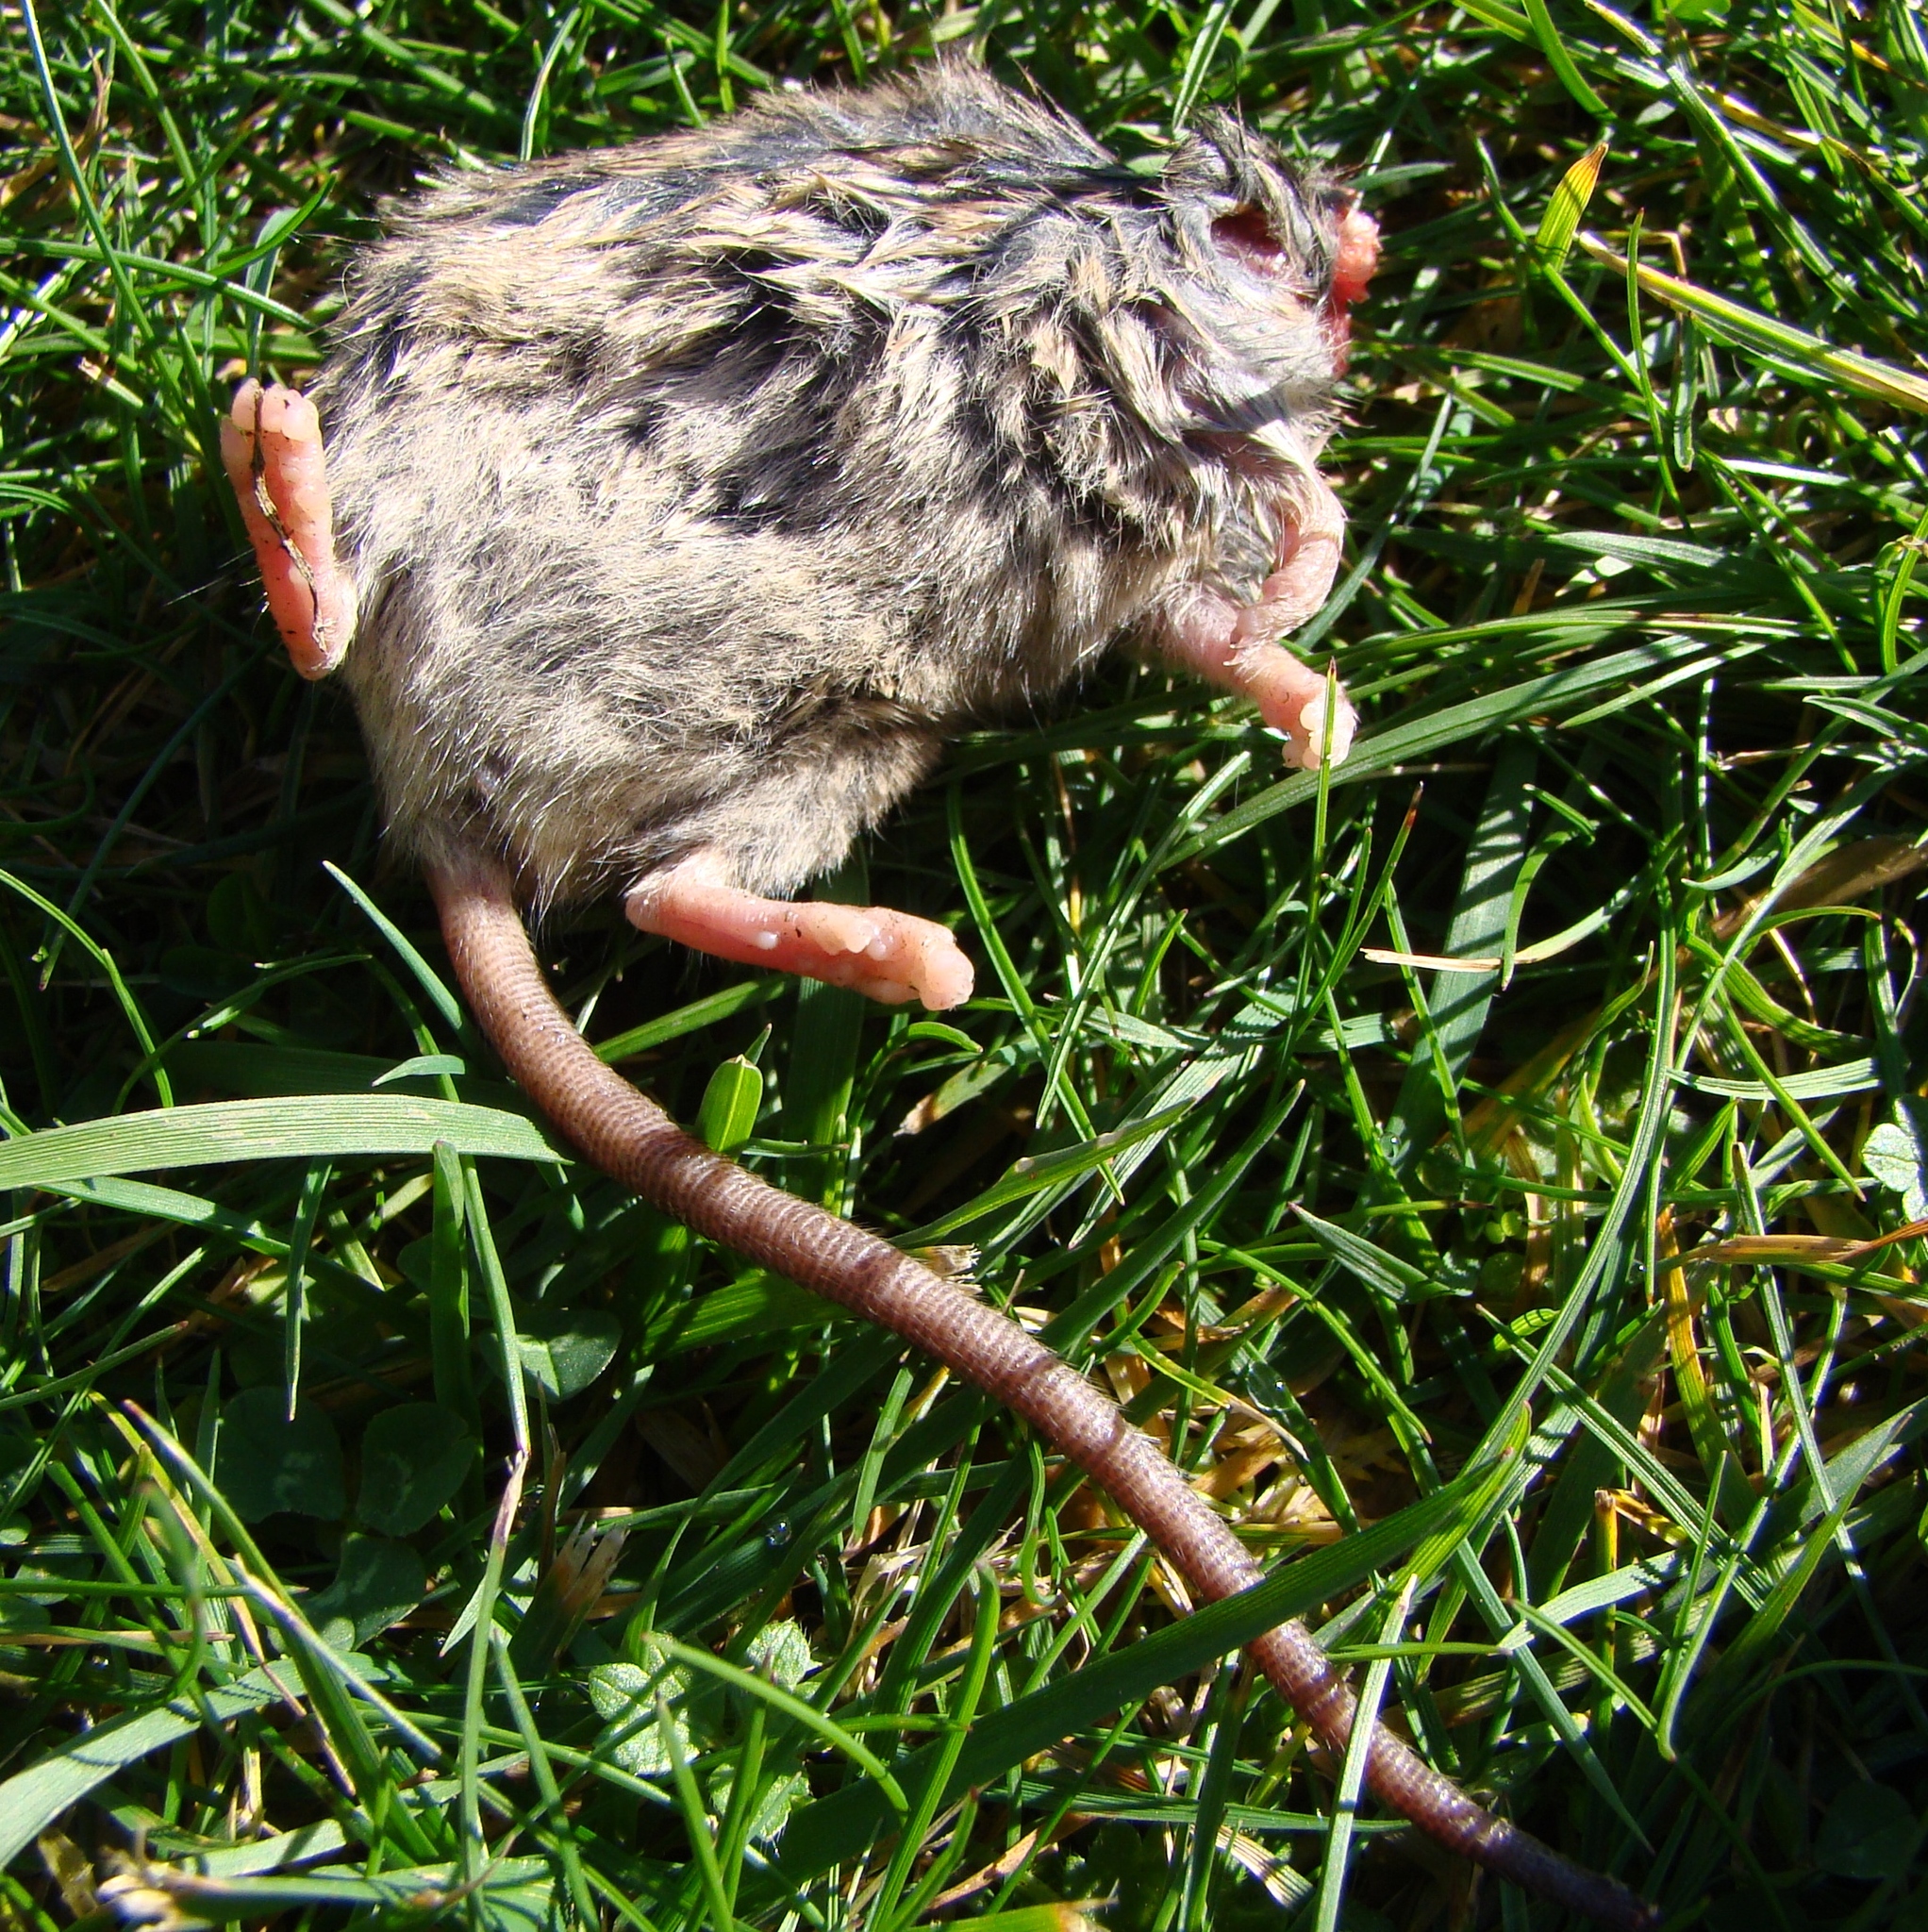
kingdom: Animalia
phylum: Chordata
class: Mammalia
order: Rodentia
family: Muridae
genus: Mus
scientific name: Mus musculus
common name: House mouse
